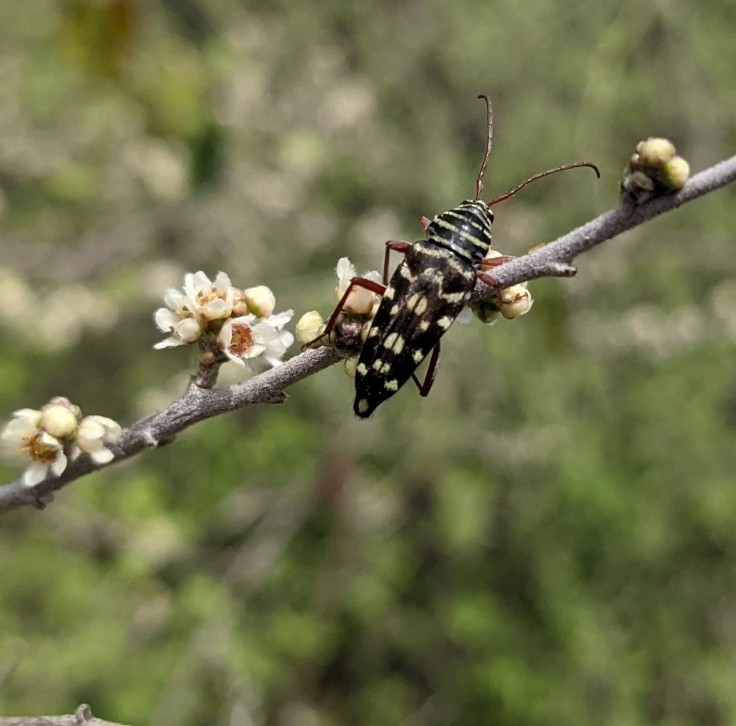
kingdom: Animalia
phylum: Arthropoda
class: Insecta
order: Coleoptera
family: Cerambycidae
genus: Placosternus
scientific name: Placosternus difficilis
